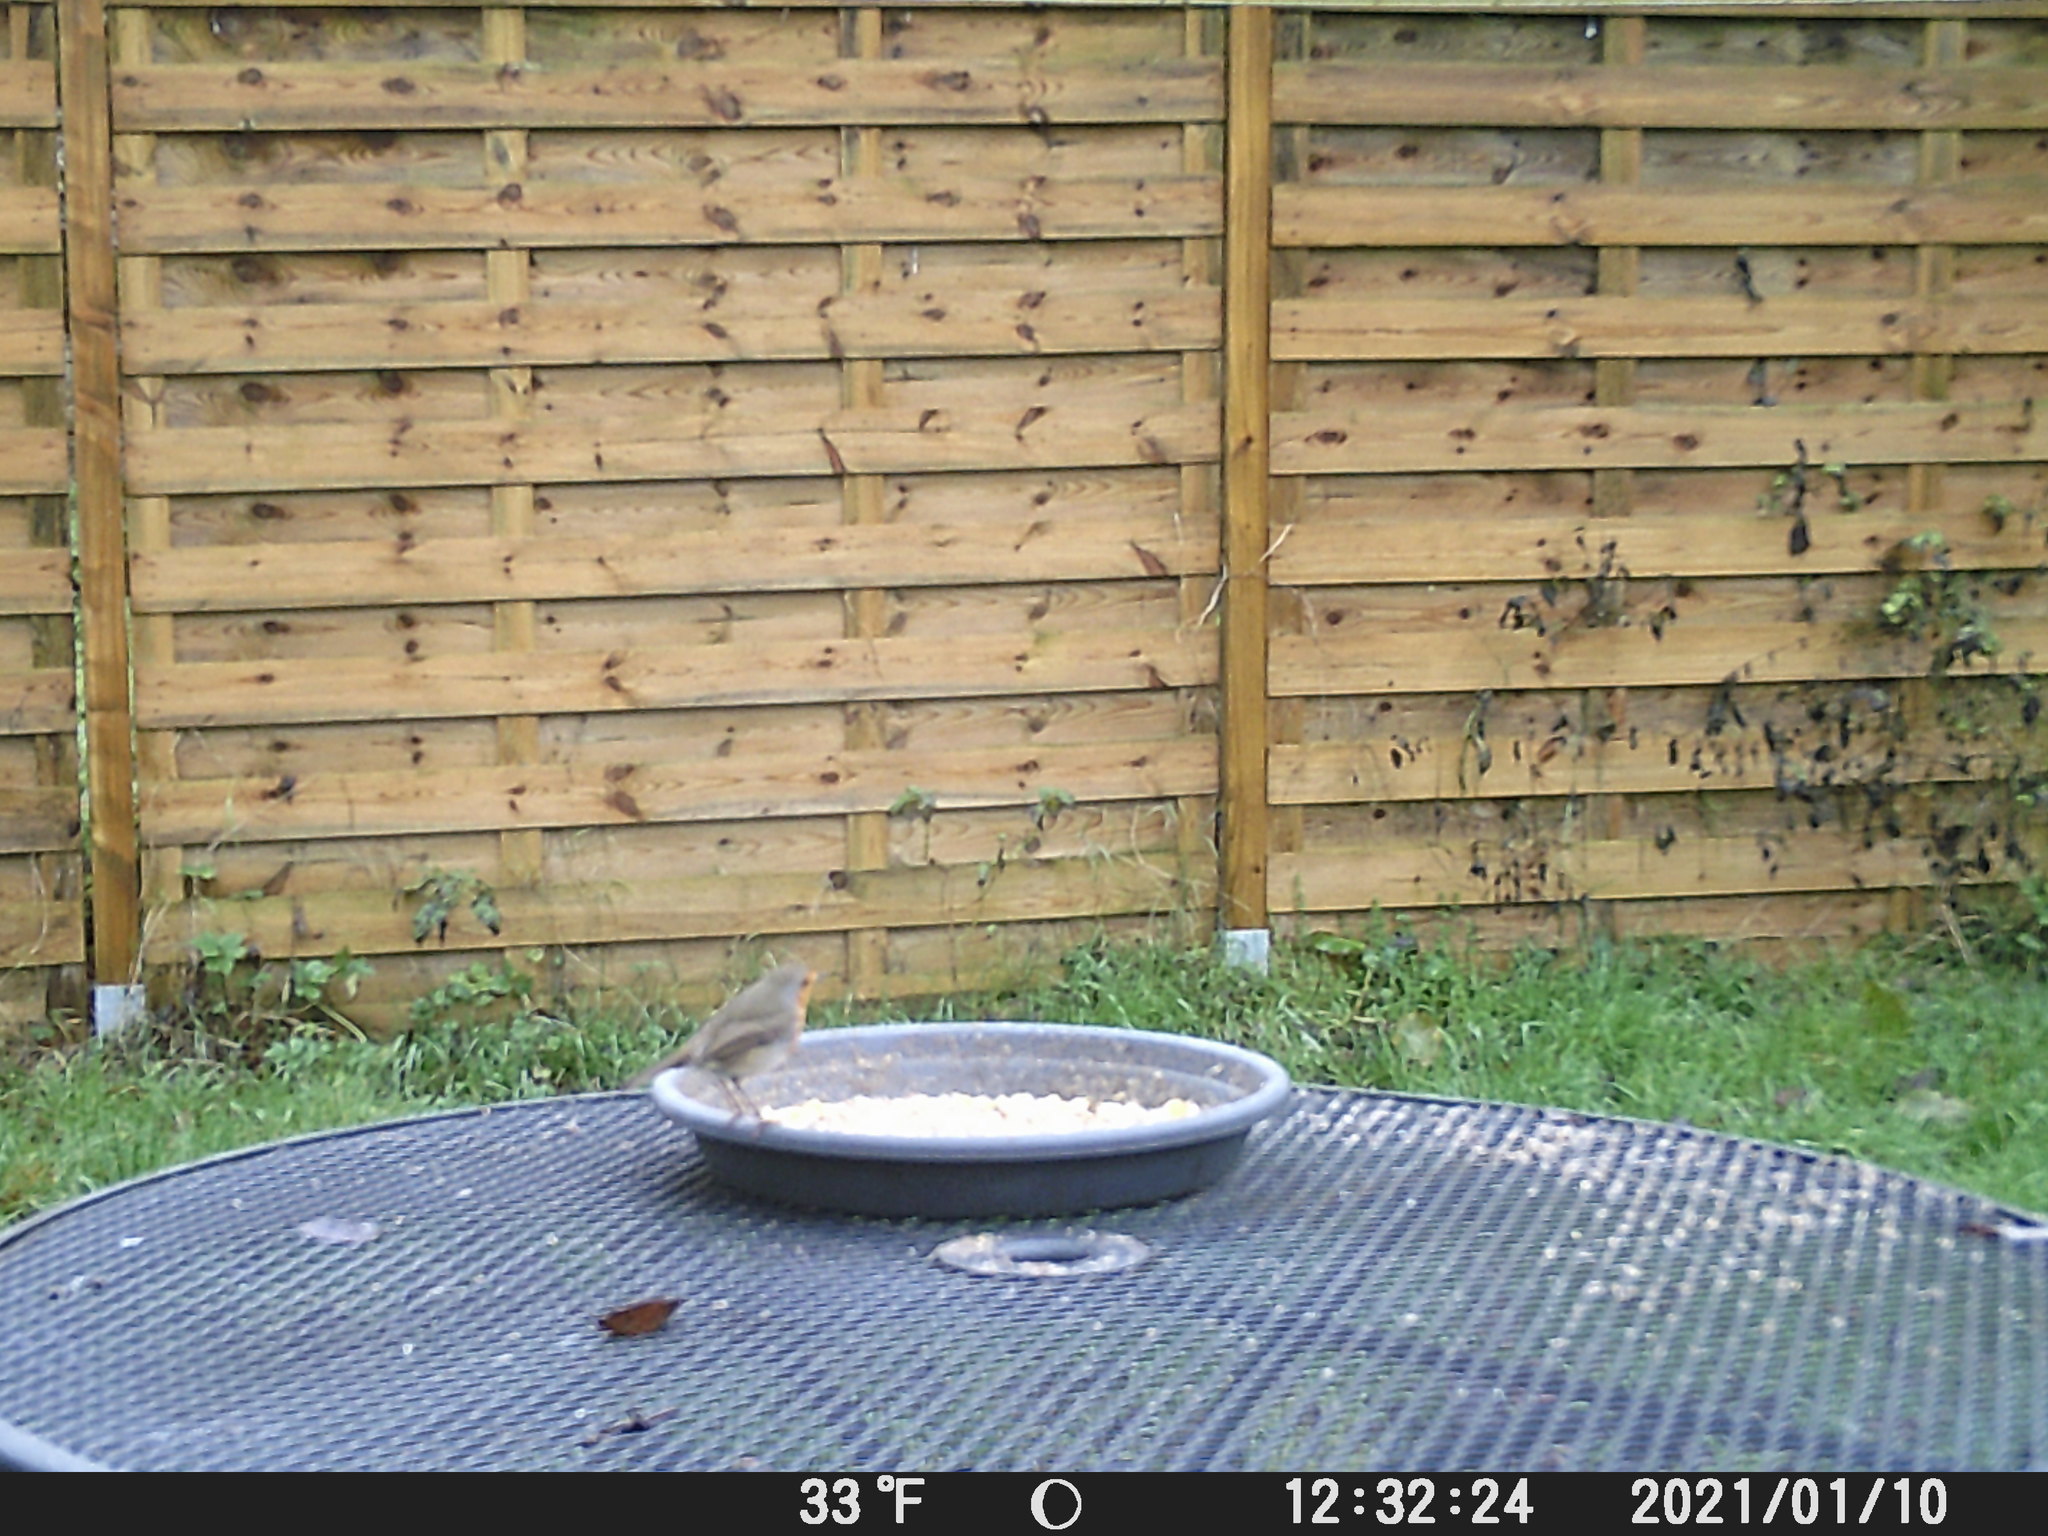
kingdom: Animalia
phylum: Chordata
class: Aves
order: Passeriformes
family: Muscicapidae
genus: Erithacus
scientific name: Erithacus rubecula
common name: European robin
